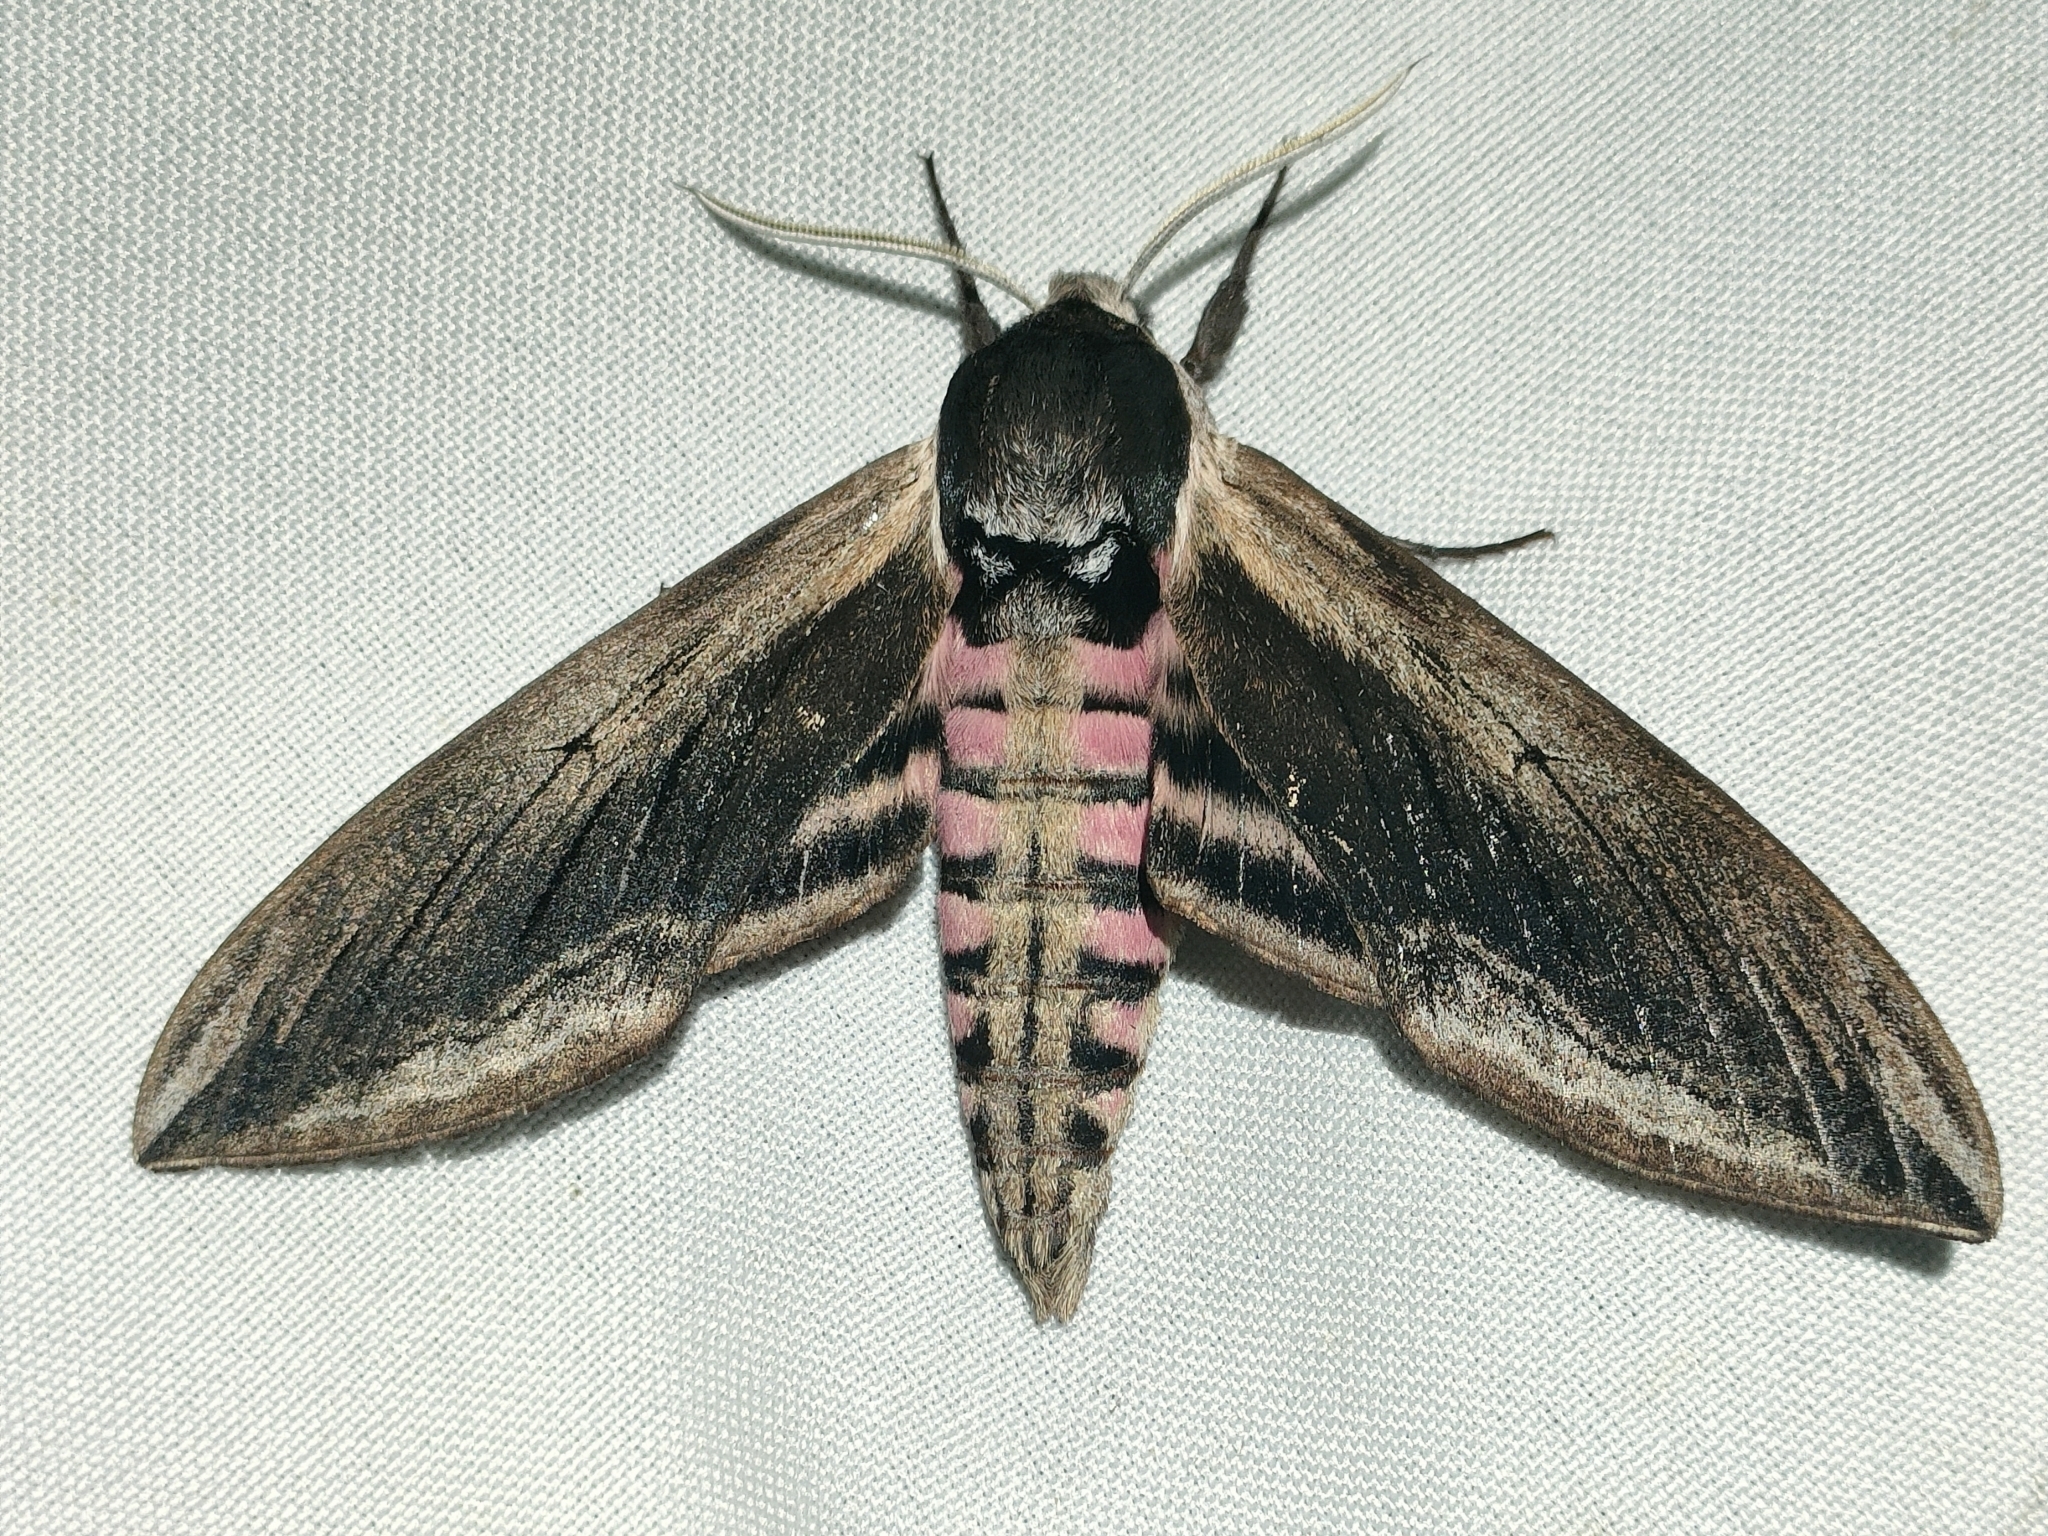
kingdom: Animalia
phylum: Arthropoda
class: Insecta
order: Lepidoptera
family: Sphingidae
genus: Sphinx
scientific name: Sphinx ligustri
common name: Privet hawk-moth
